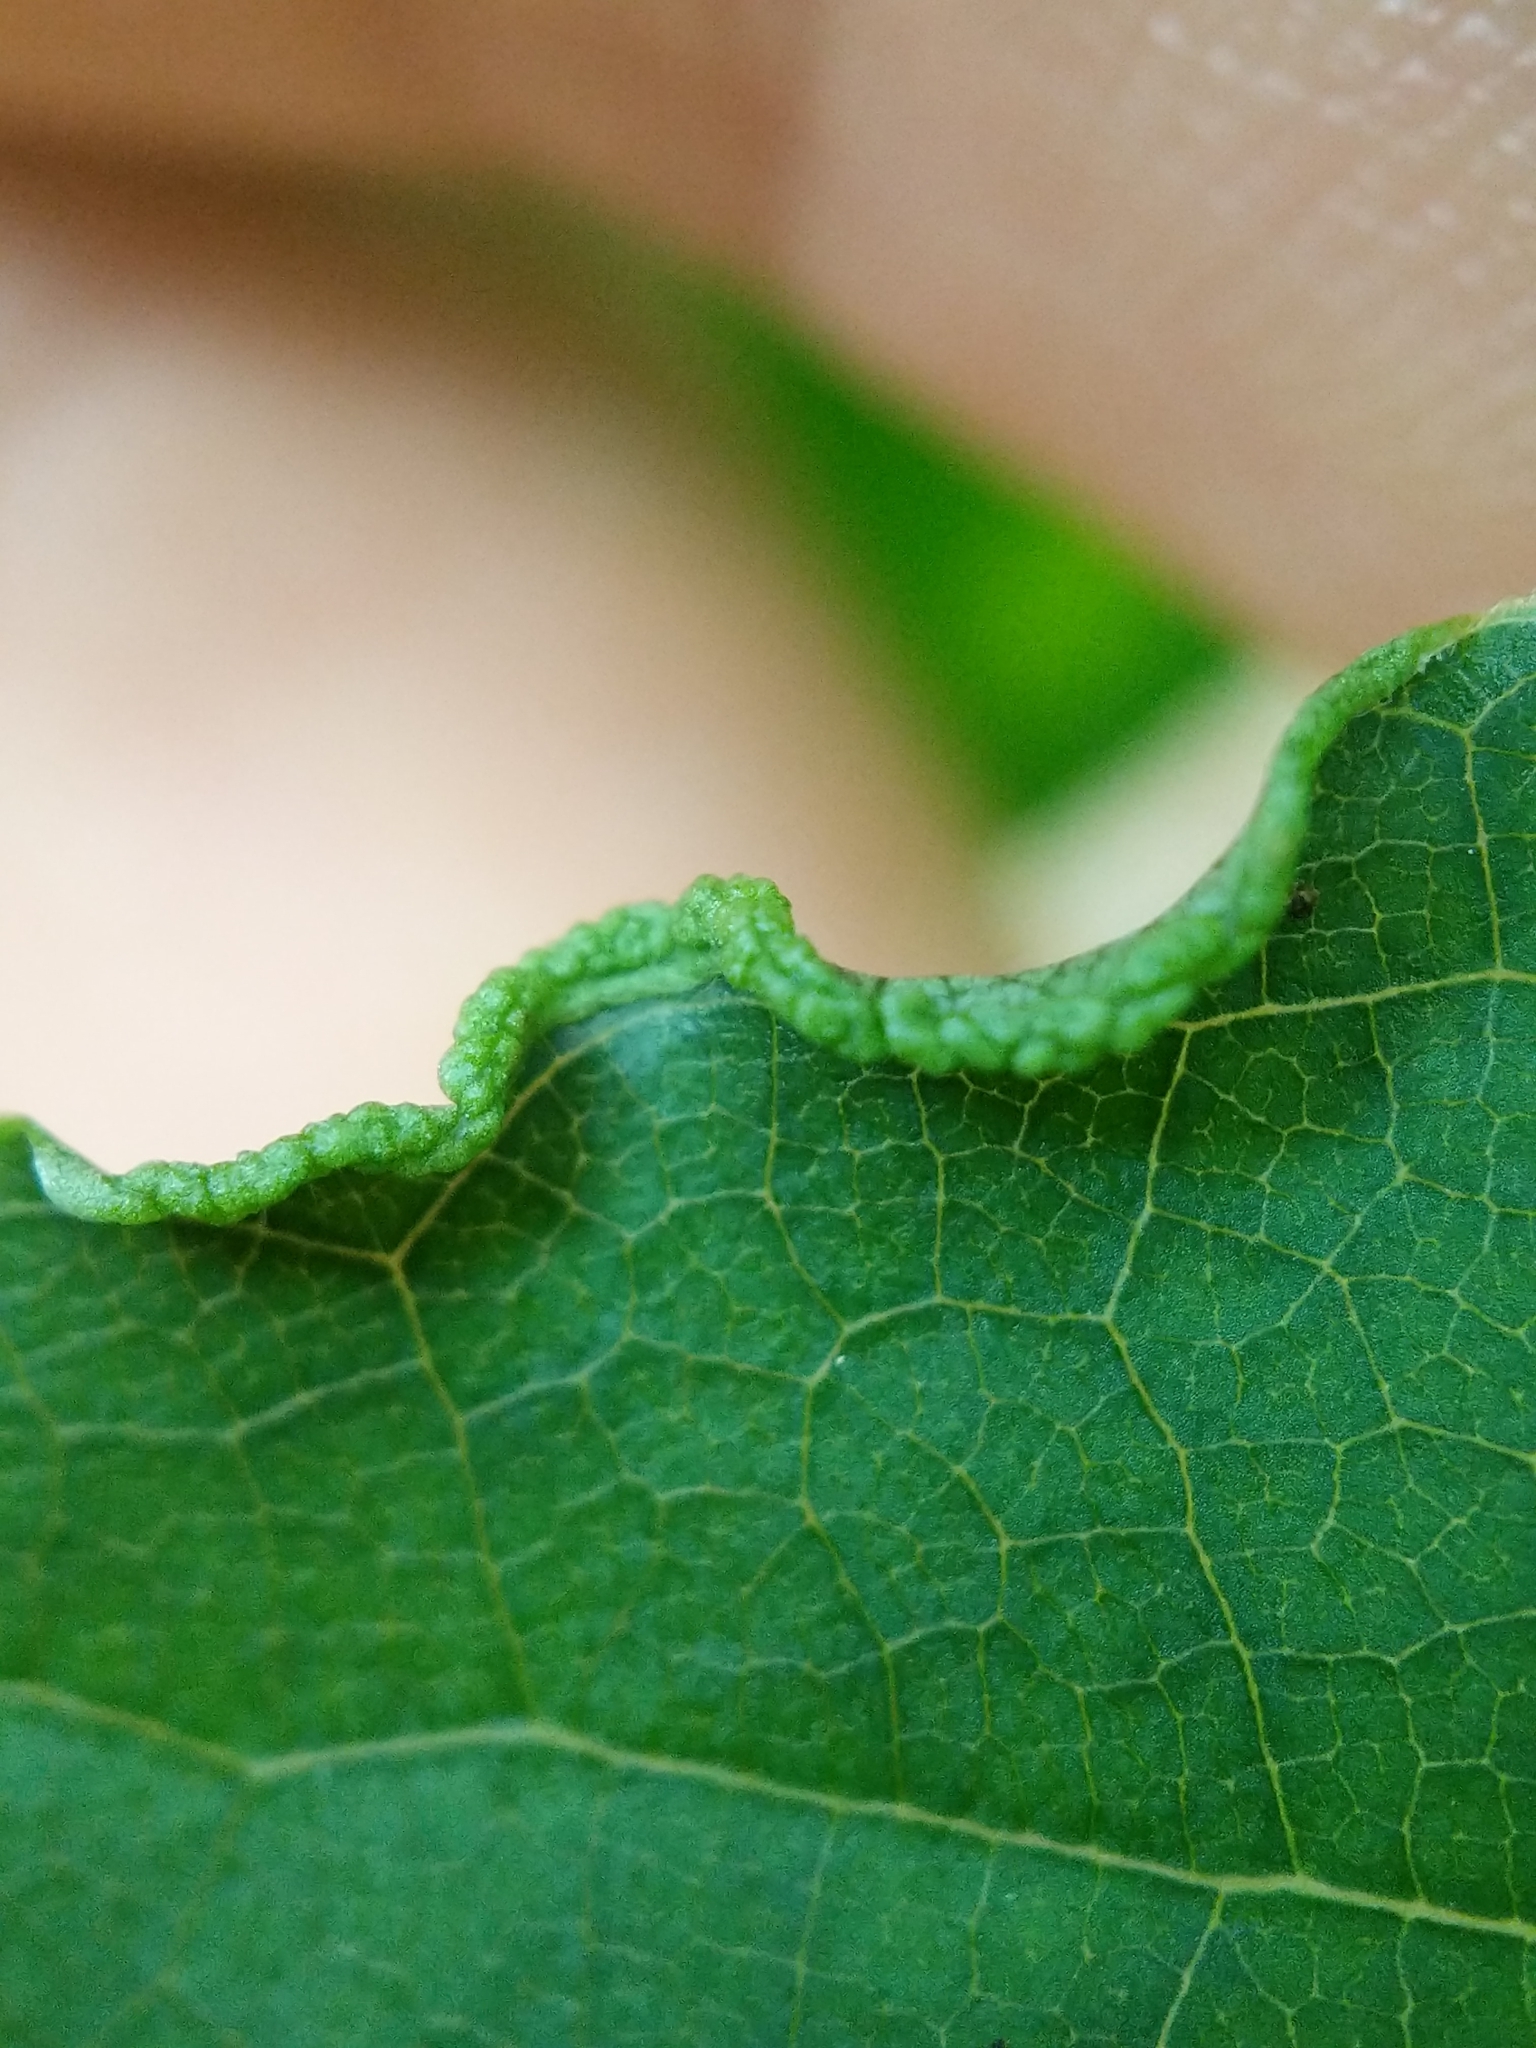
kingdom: Animalia
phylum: Arthropoda
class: Arachnida
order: Trombidiformes
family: Eriophyidae
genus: Aceria
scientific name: Aceria
